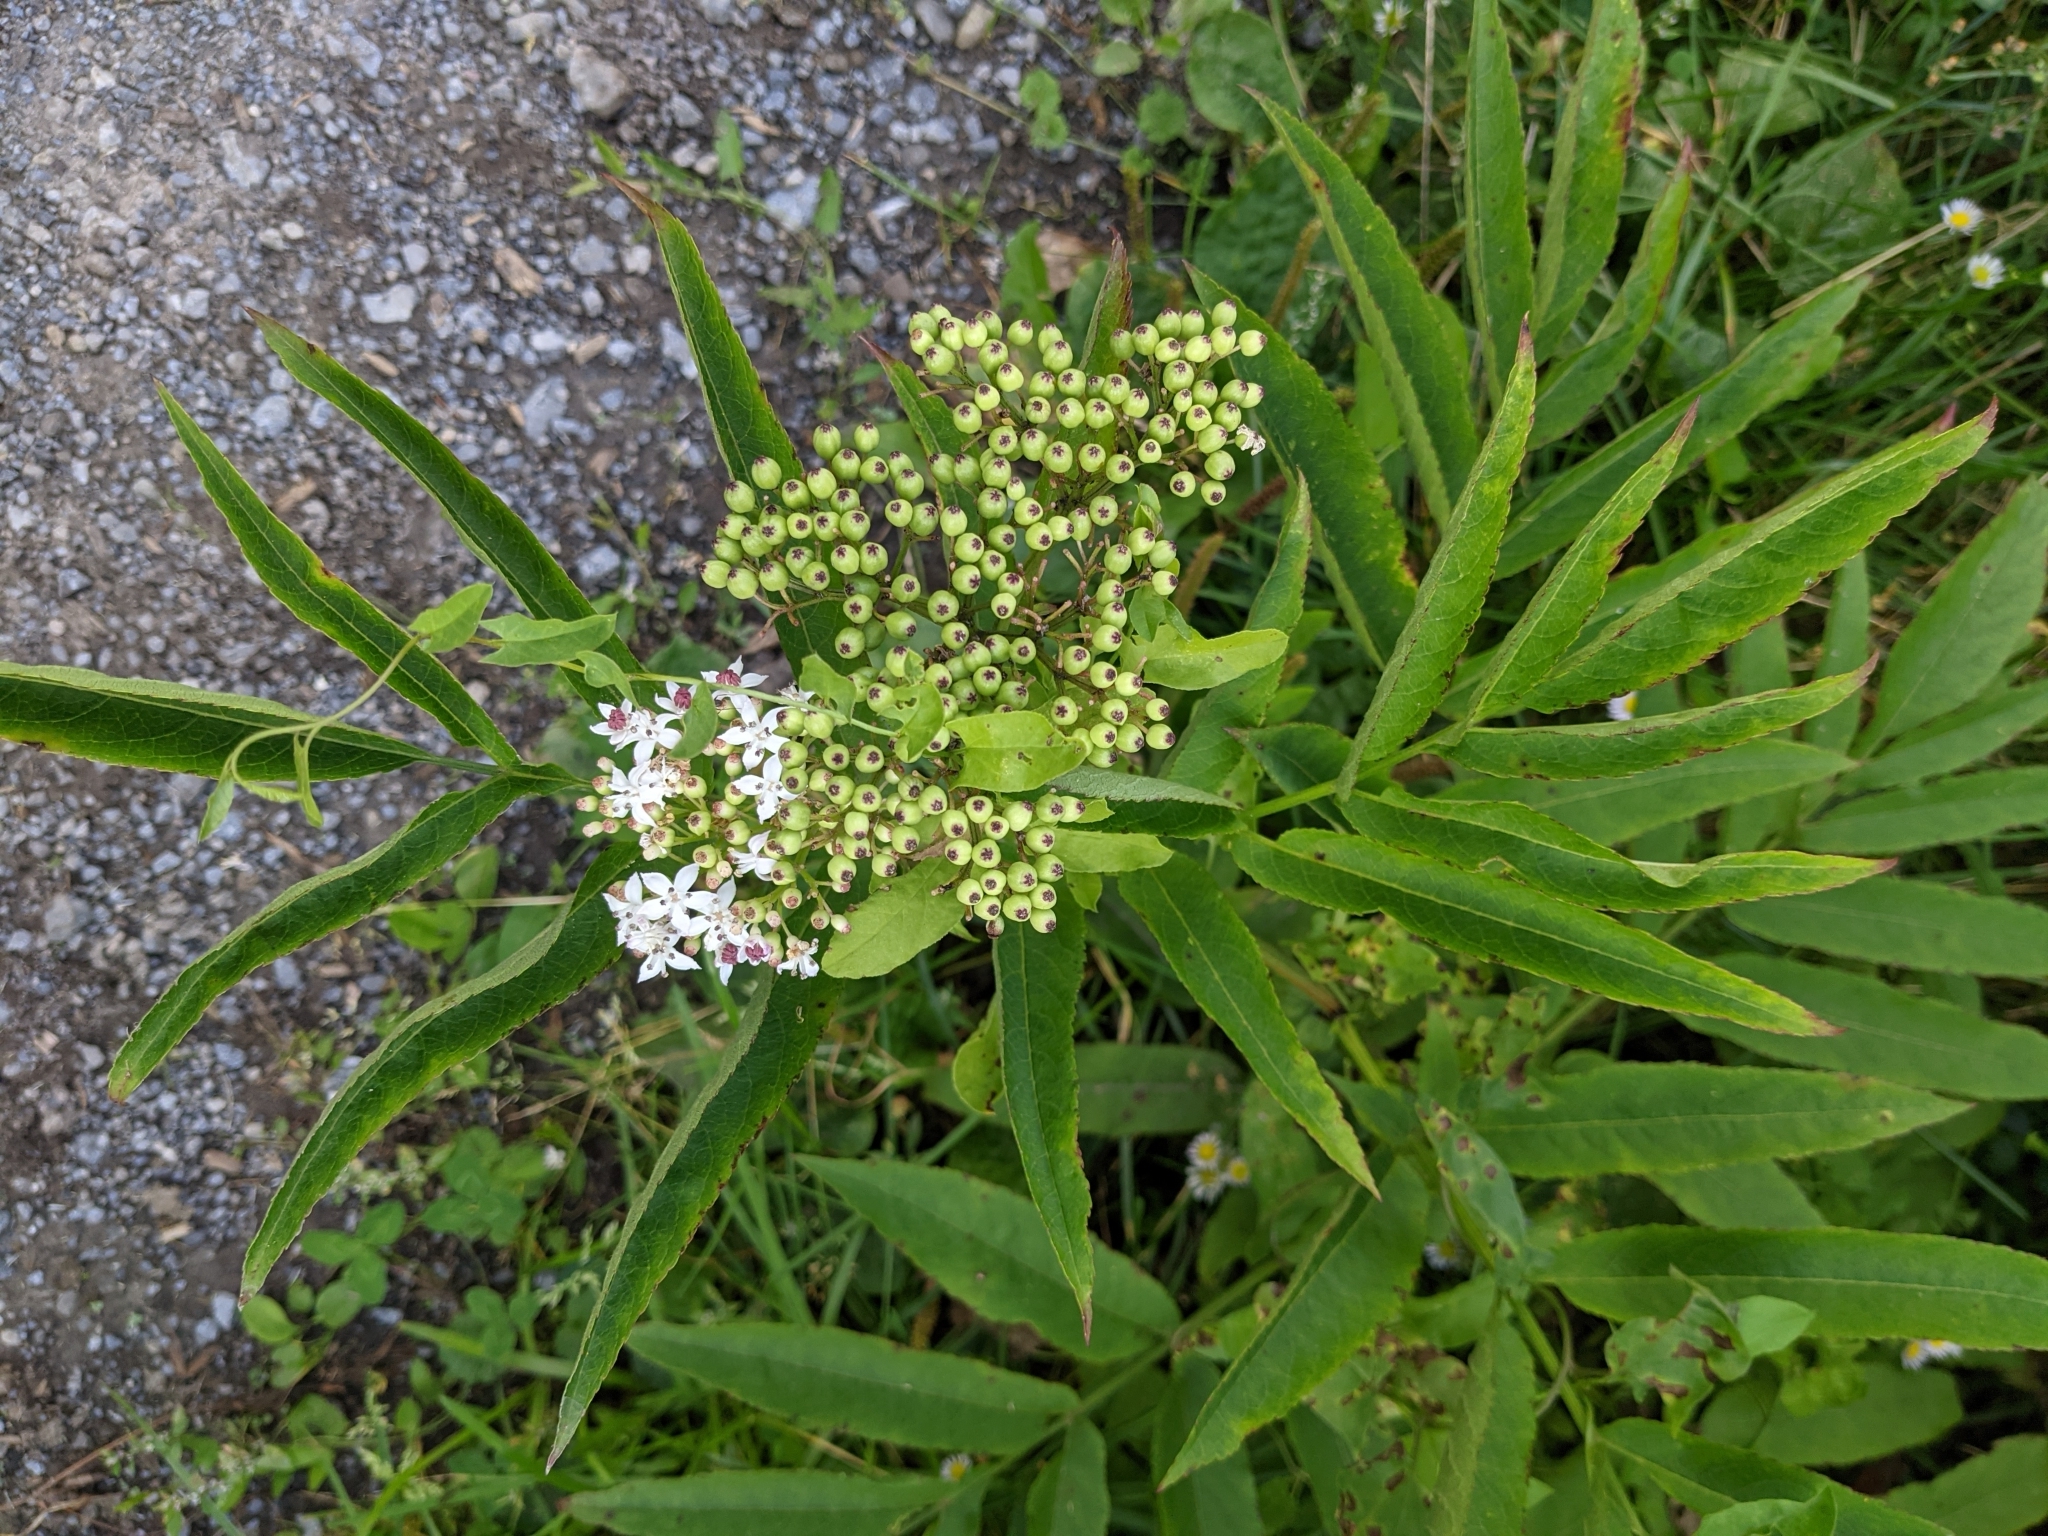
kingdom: Plantae
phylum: Tracheophyta
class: Magnoliopsida
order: Dipsacales
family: Viburnaceae
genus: Sambucus
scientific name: Sambucus ebulus
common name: Dwarf elder
